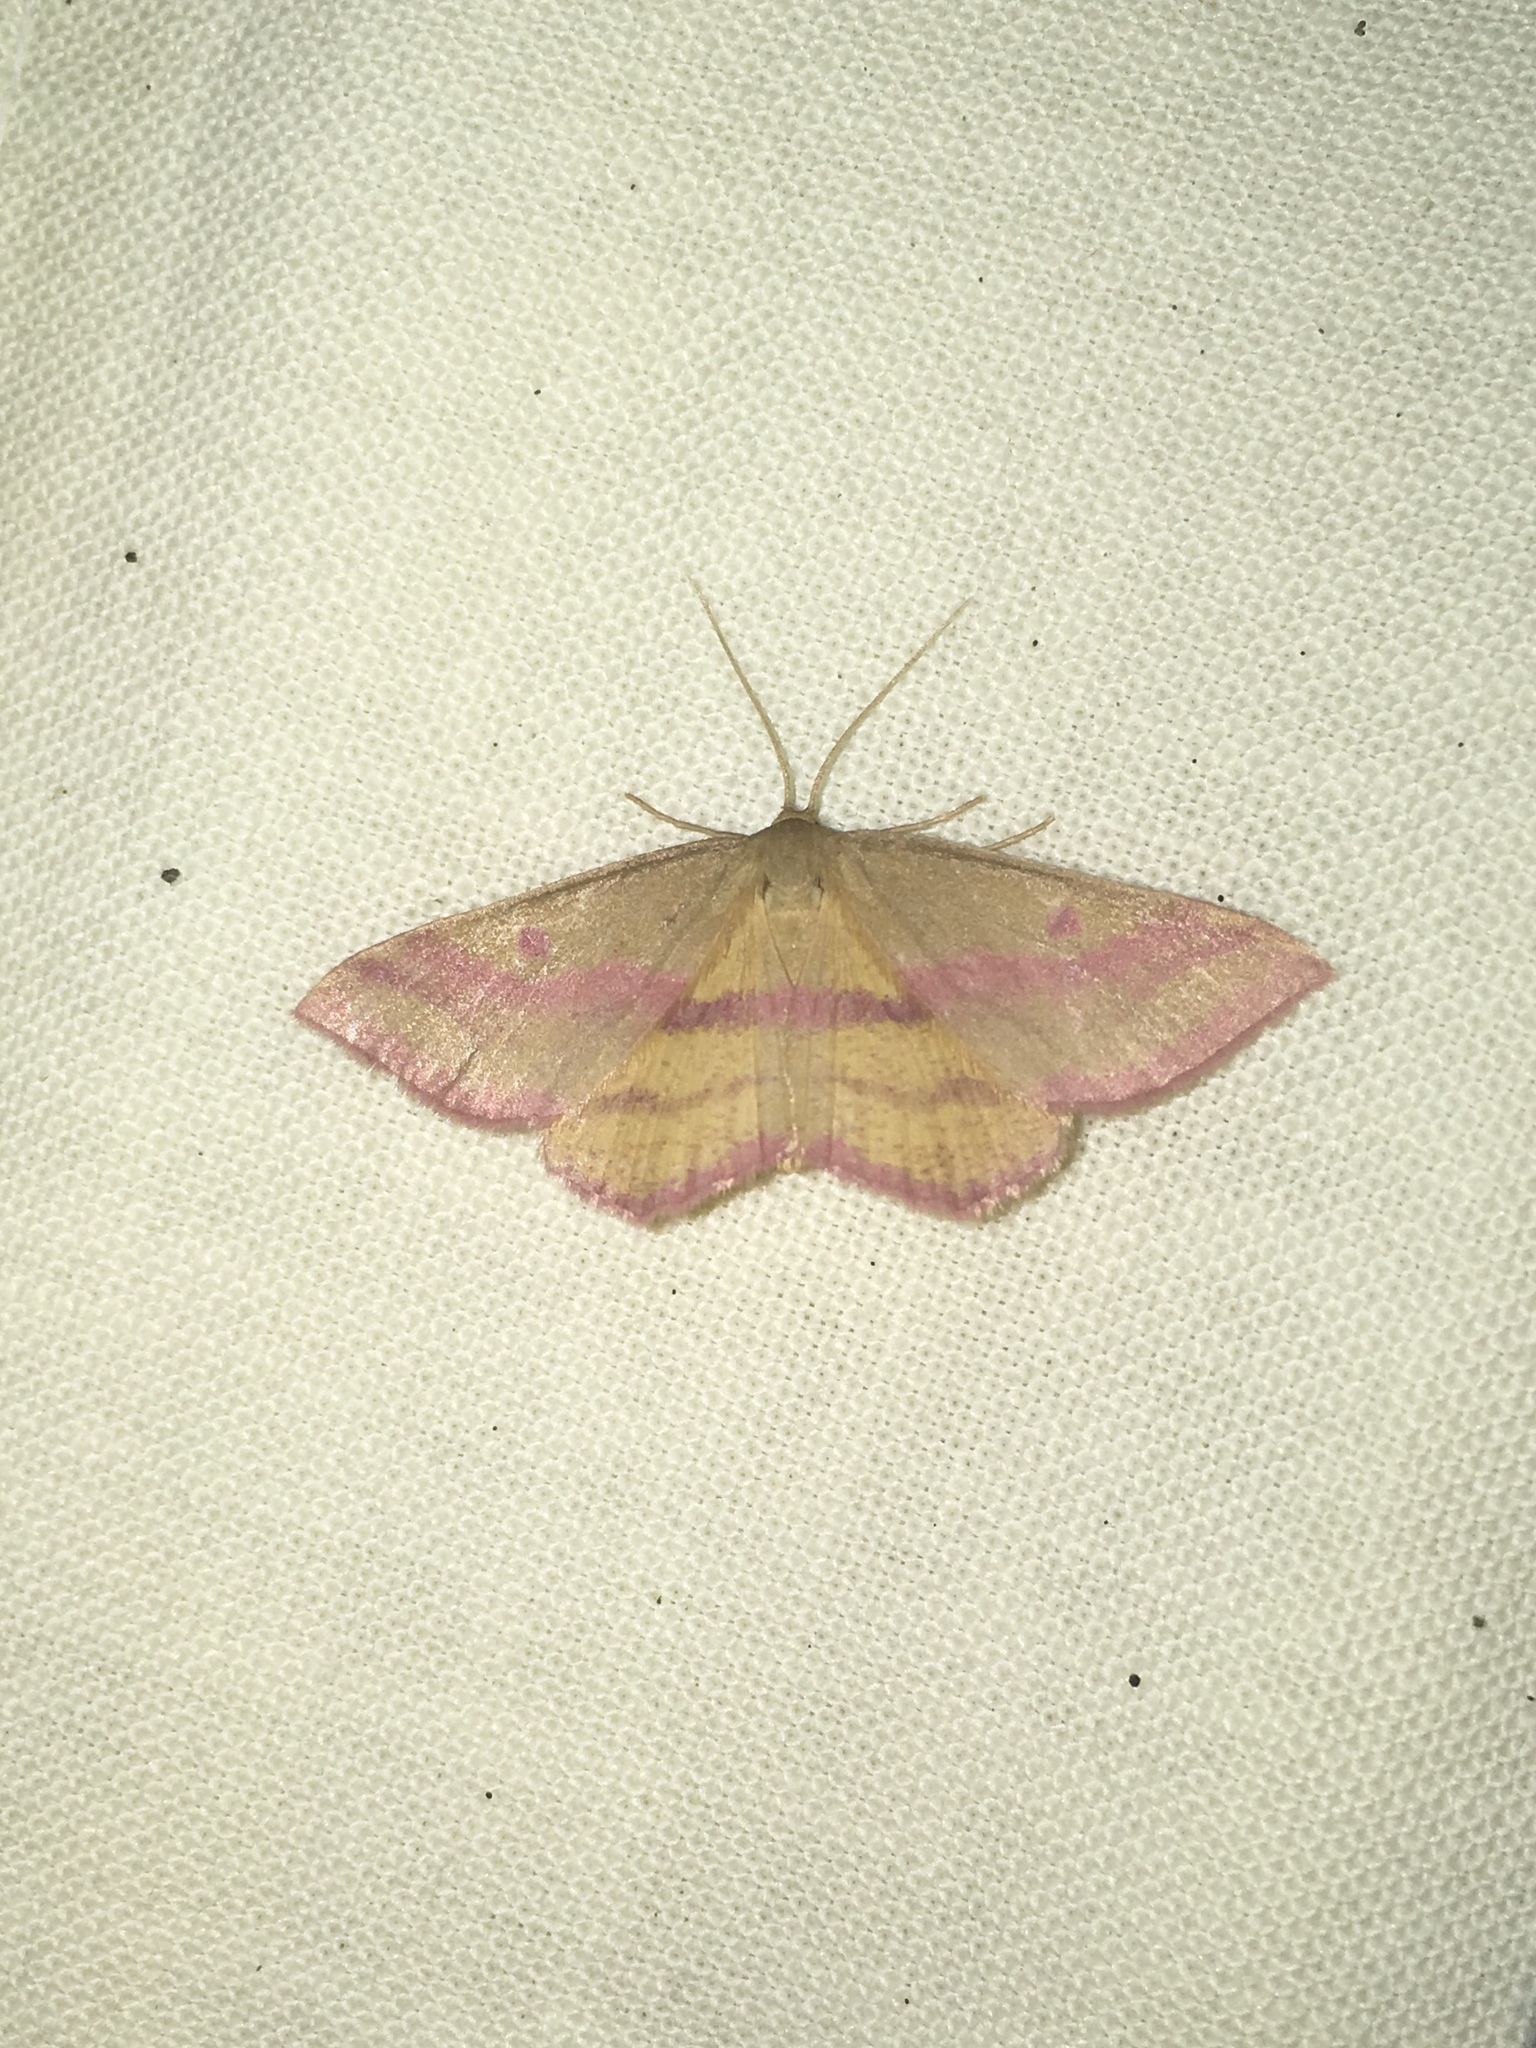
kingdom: Animalia
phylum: Arthropoda
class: Insecta
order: Lepidoptera
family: Geometridae
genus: Haematopis
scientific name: Haematopis grataria
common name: Chickweed geometer
